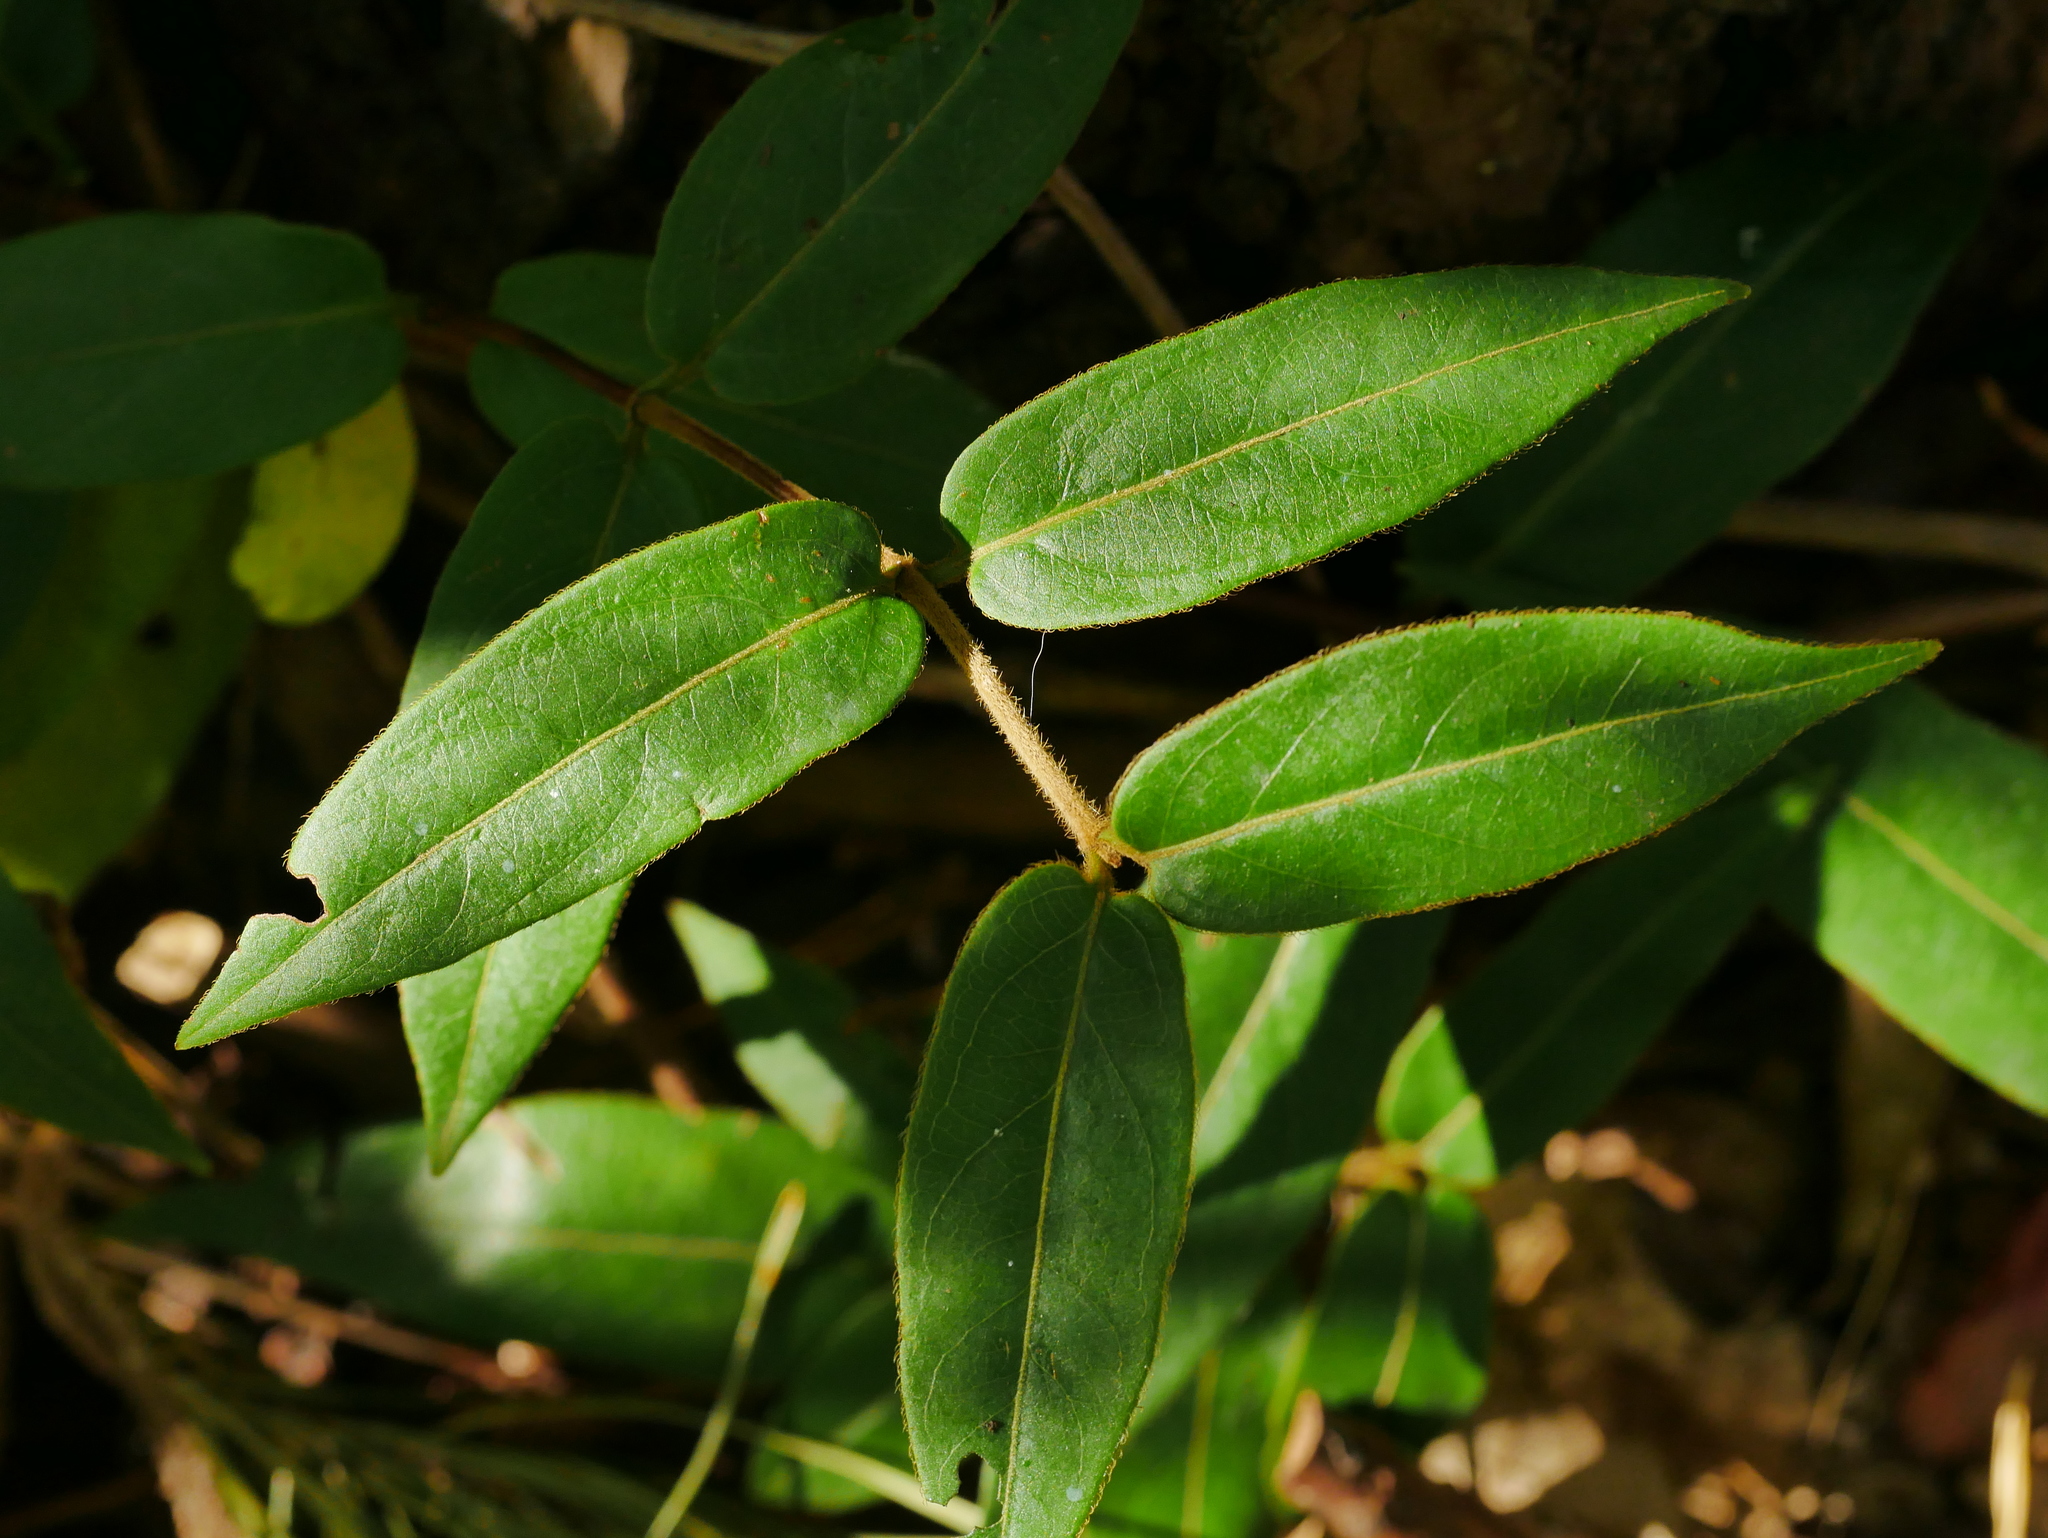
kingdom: Plantae
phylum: Tracheophyta
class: Magnoliopsida
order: Dipsacales
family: Caprifoliaceae
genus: Lonicera
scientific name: Lonicera acuminata
